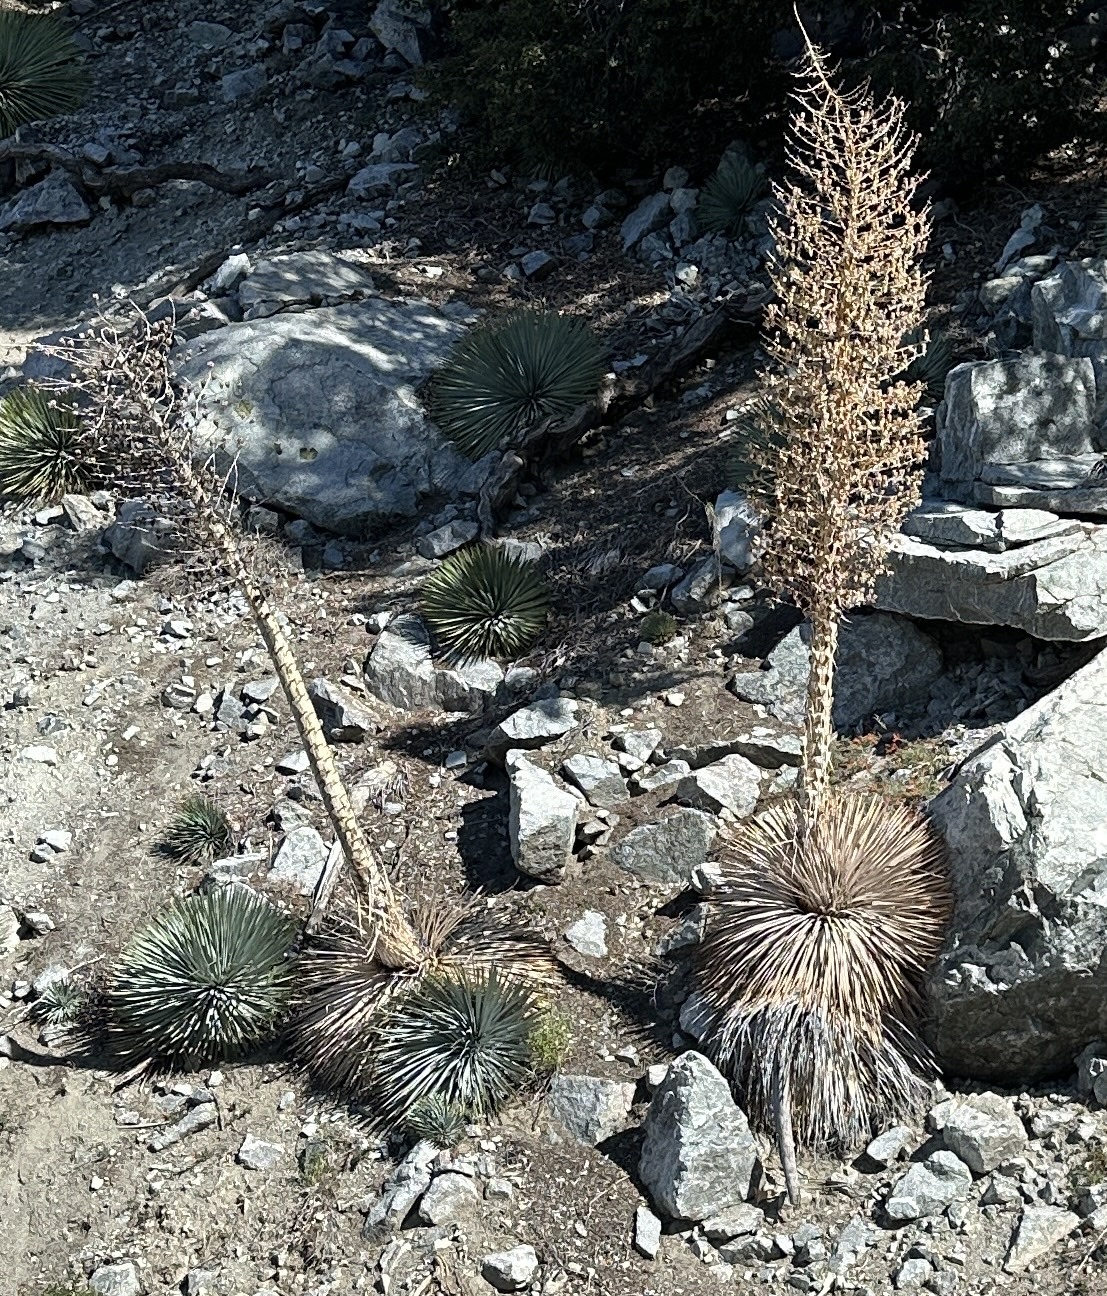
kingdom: Plantae
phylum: Tracheophyta
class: Liliopsida
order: Asparagales
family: Asparagaceae
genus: Hesperoyucca
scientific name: Hesperoyucca whipplei
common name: Our lord's-candle
